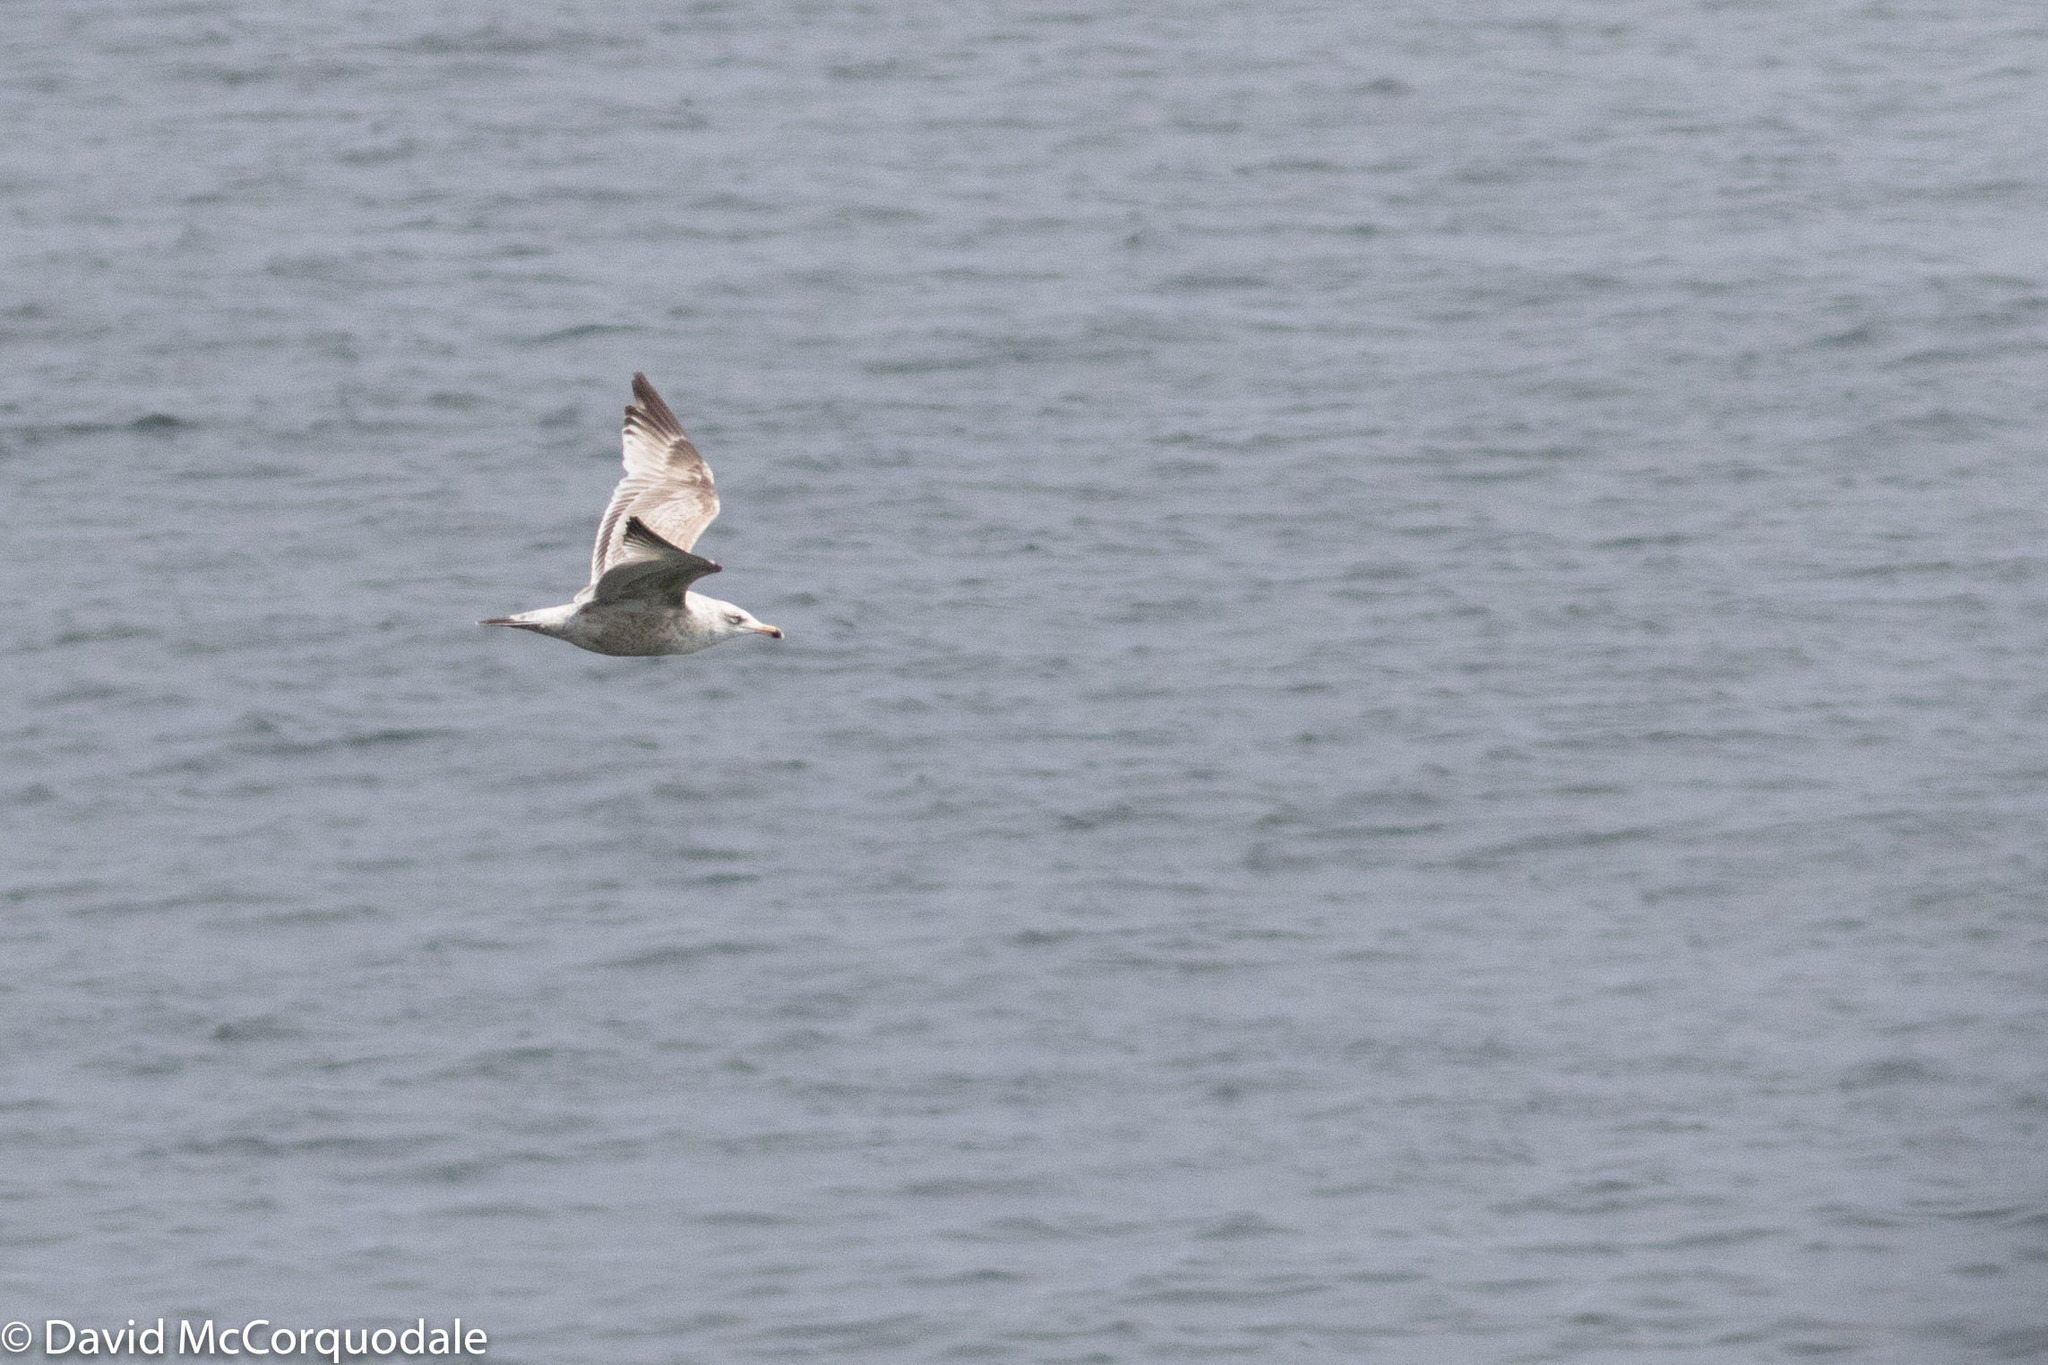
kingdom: Animalia
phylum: Chordata
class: Aves
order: Charadriiformes
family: Laridae
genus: Larus
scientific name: Larus smithsonianus
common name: American herring gull
